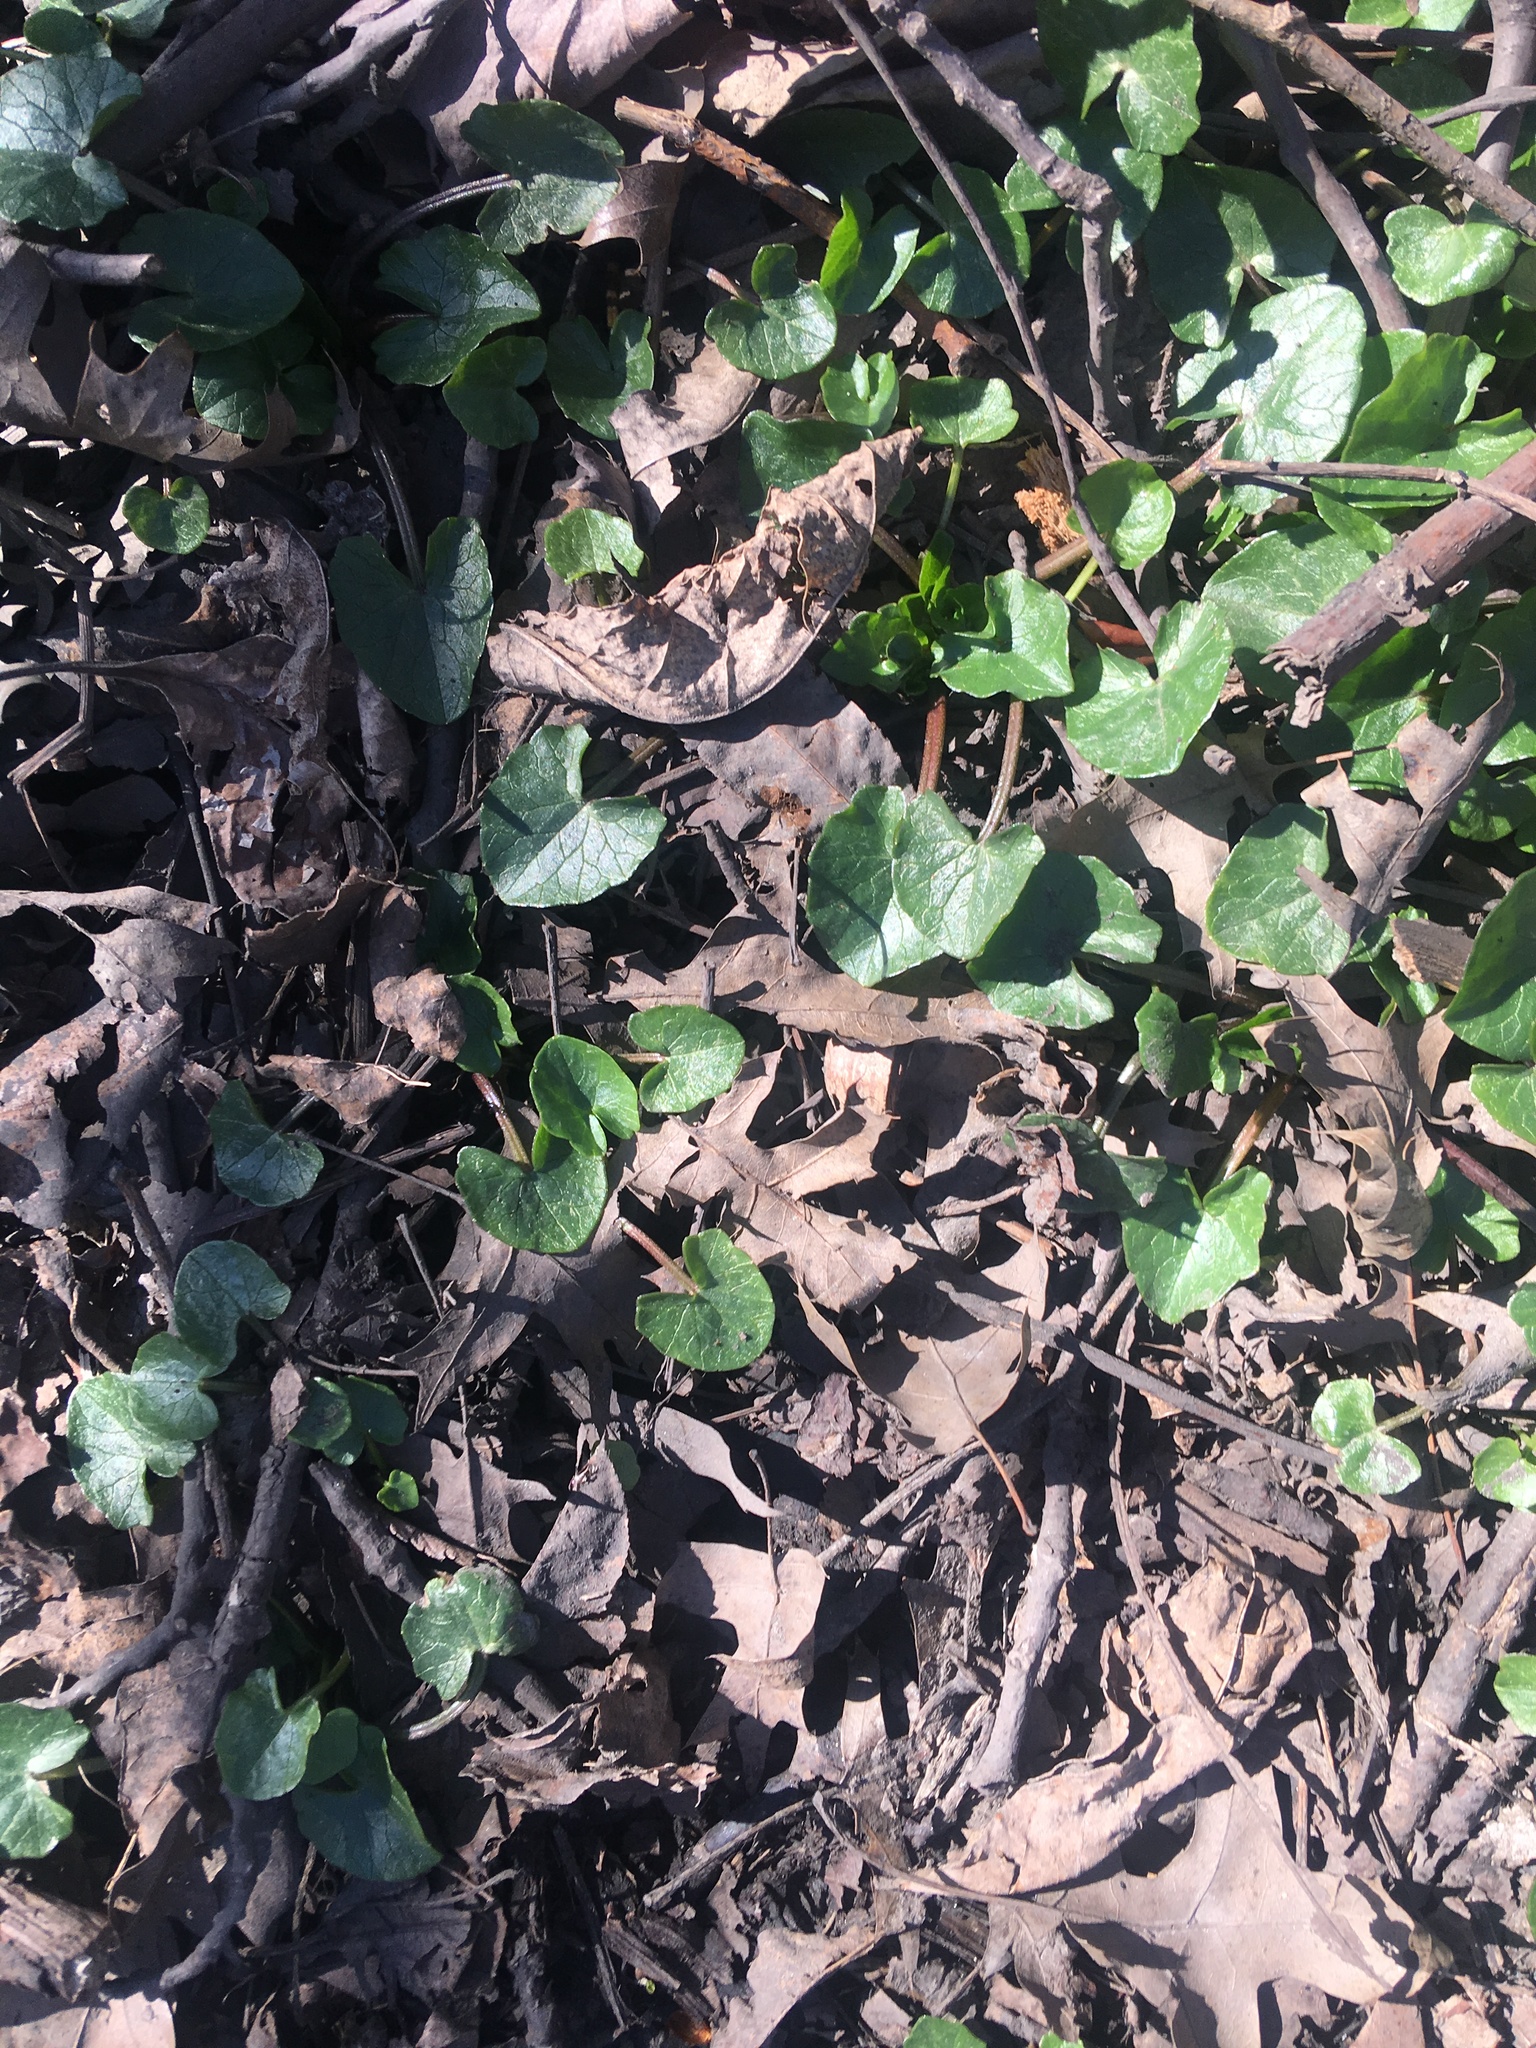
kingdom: Plantae
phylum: Tracheophyta
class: Magnoliopsida
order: Ranunculales
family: Ranunculaceae
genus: Ficaria
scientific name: Ficaria verna
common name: Lesser celandine
